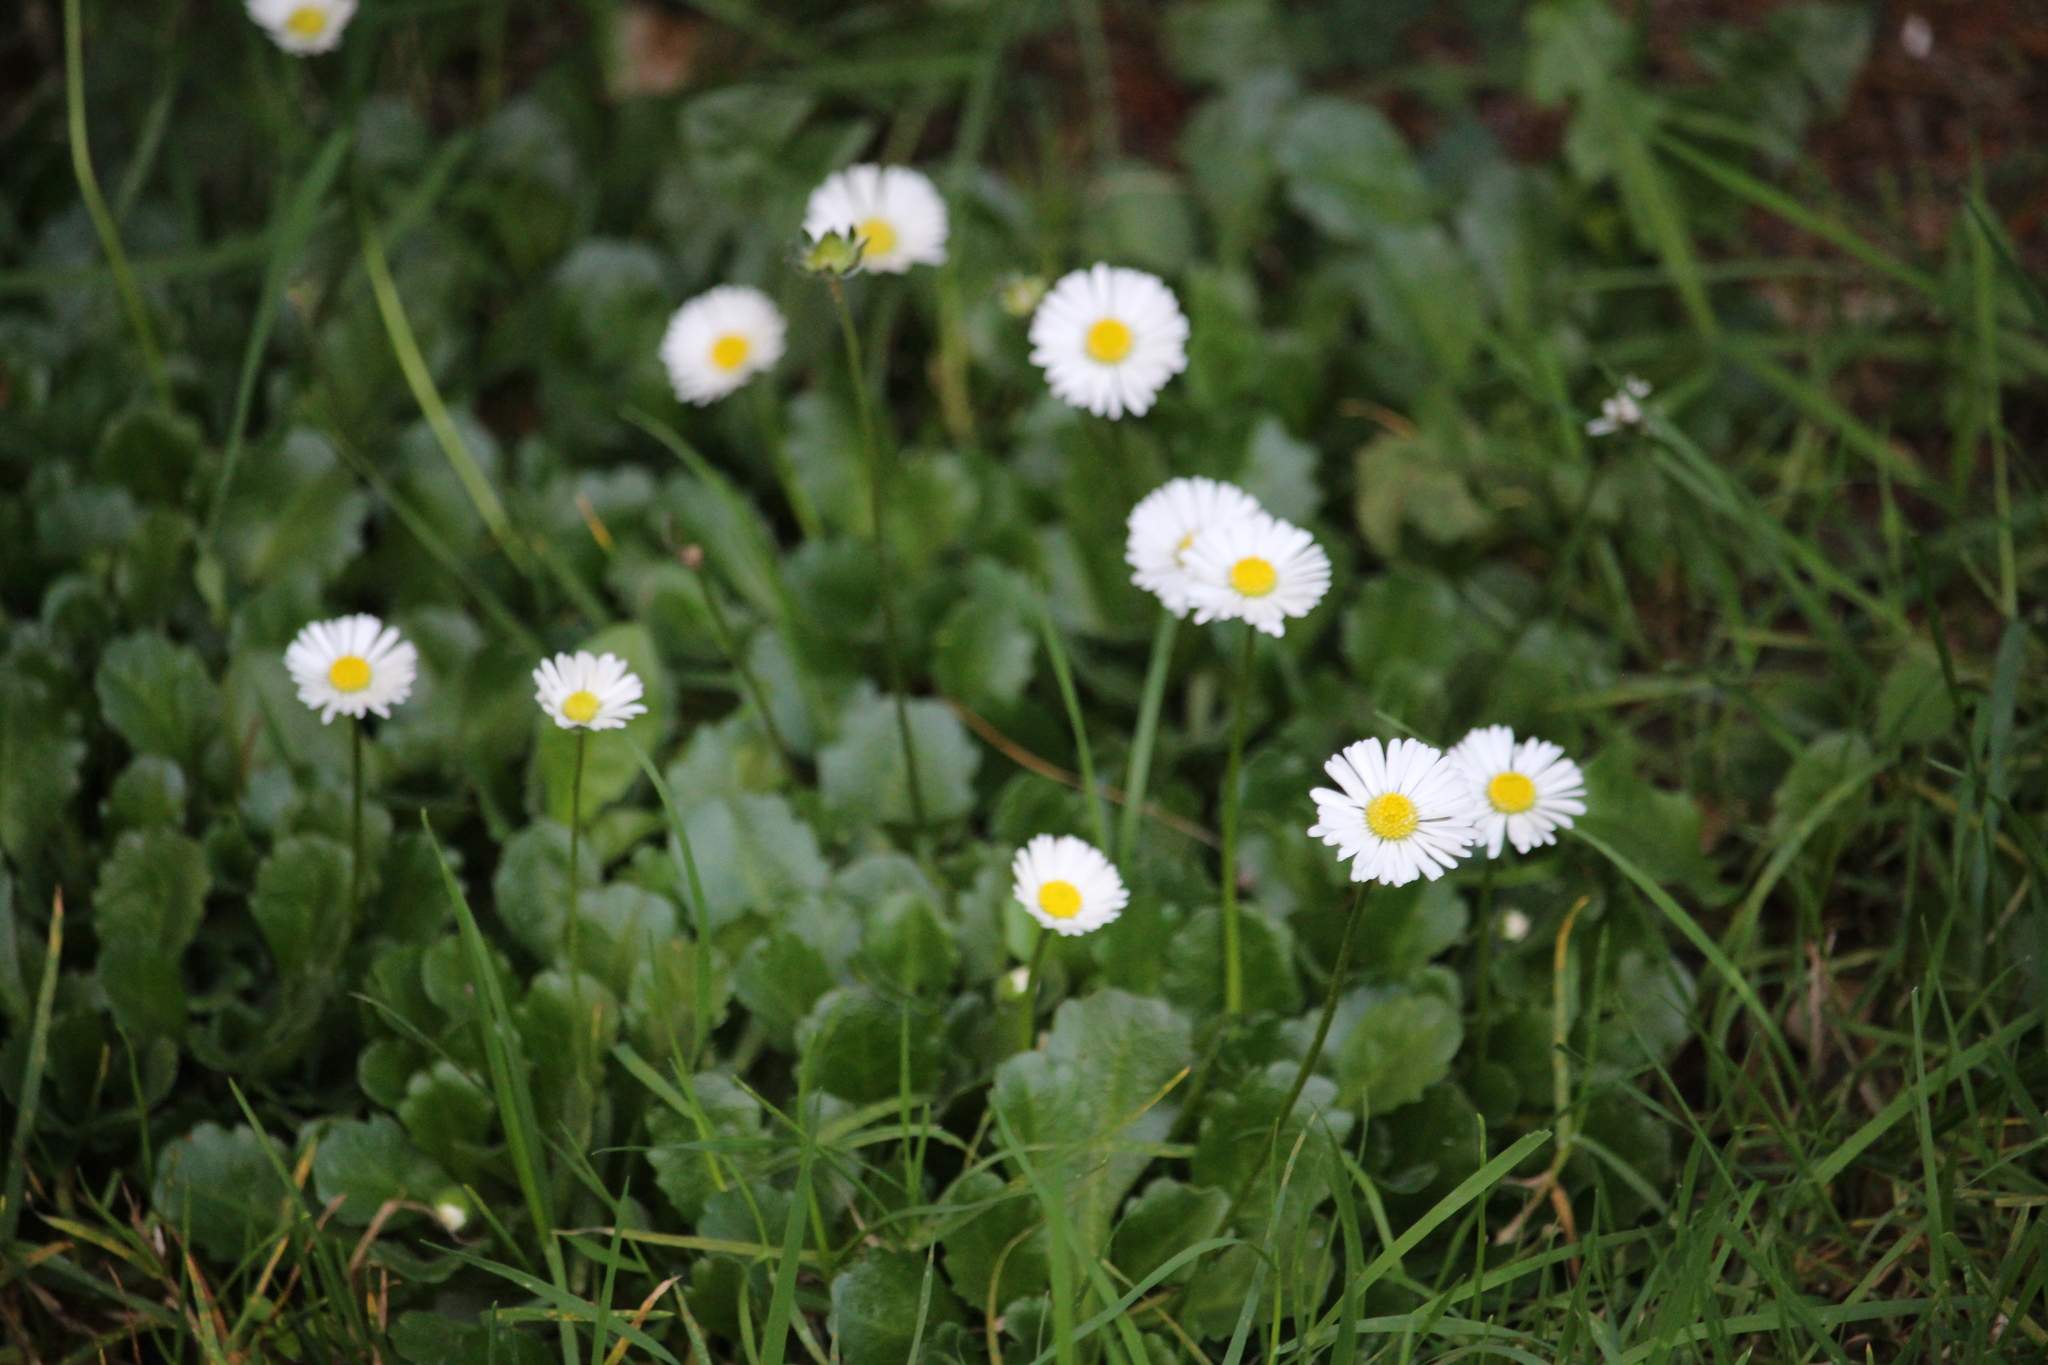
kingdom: Plantae
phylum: Tracheophyta
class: Magnoliopsida
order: Asterales
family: Asteraceae
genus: Bellis
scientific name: Bellis perennis
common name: Lawndaisy
